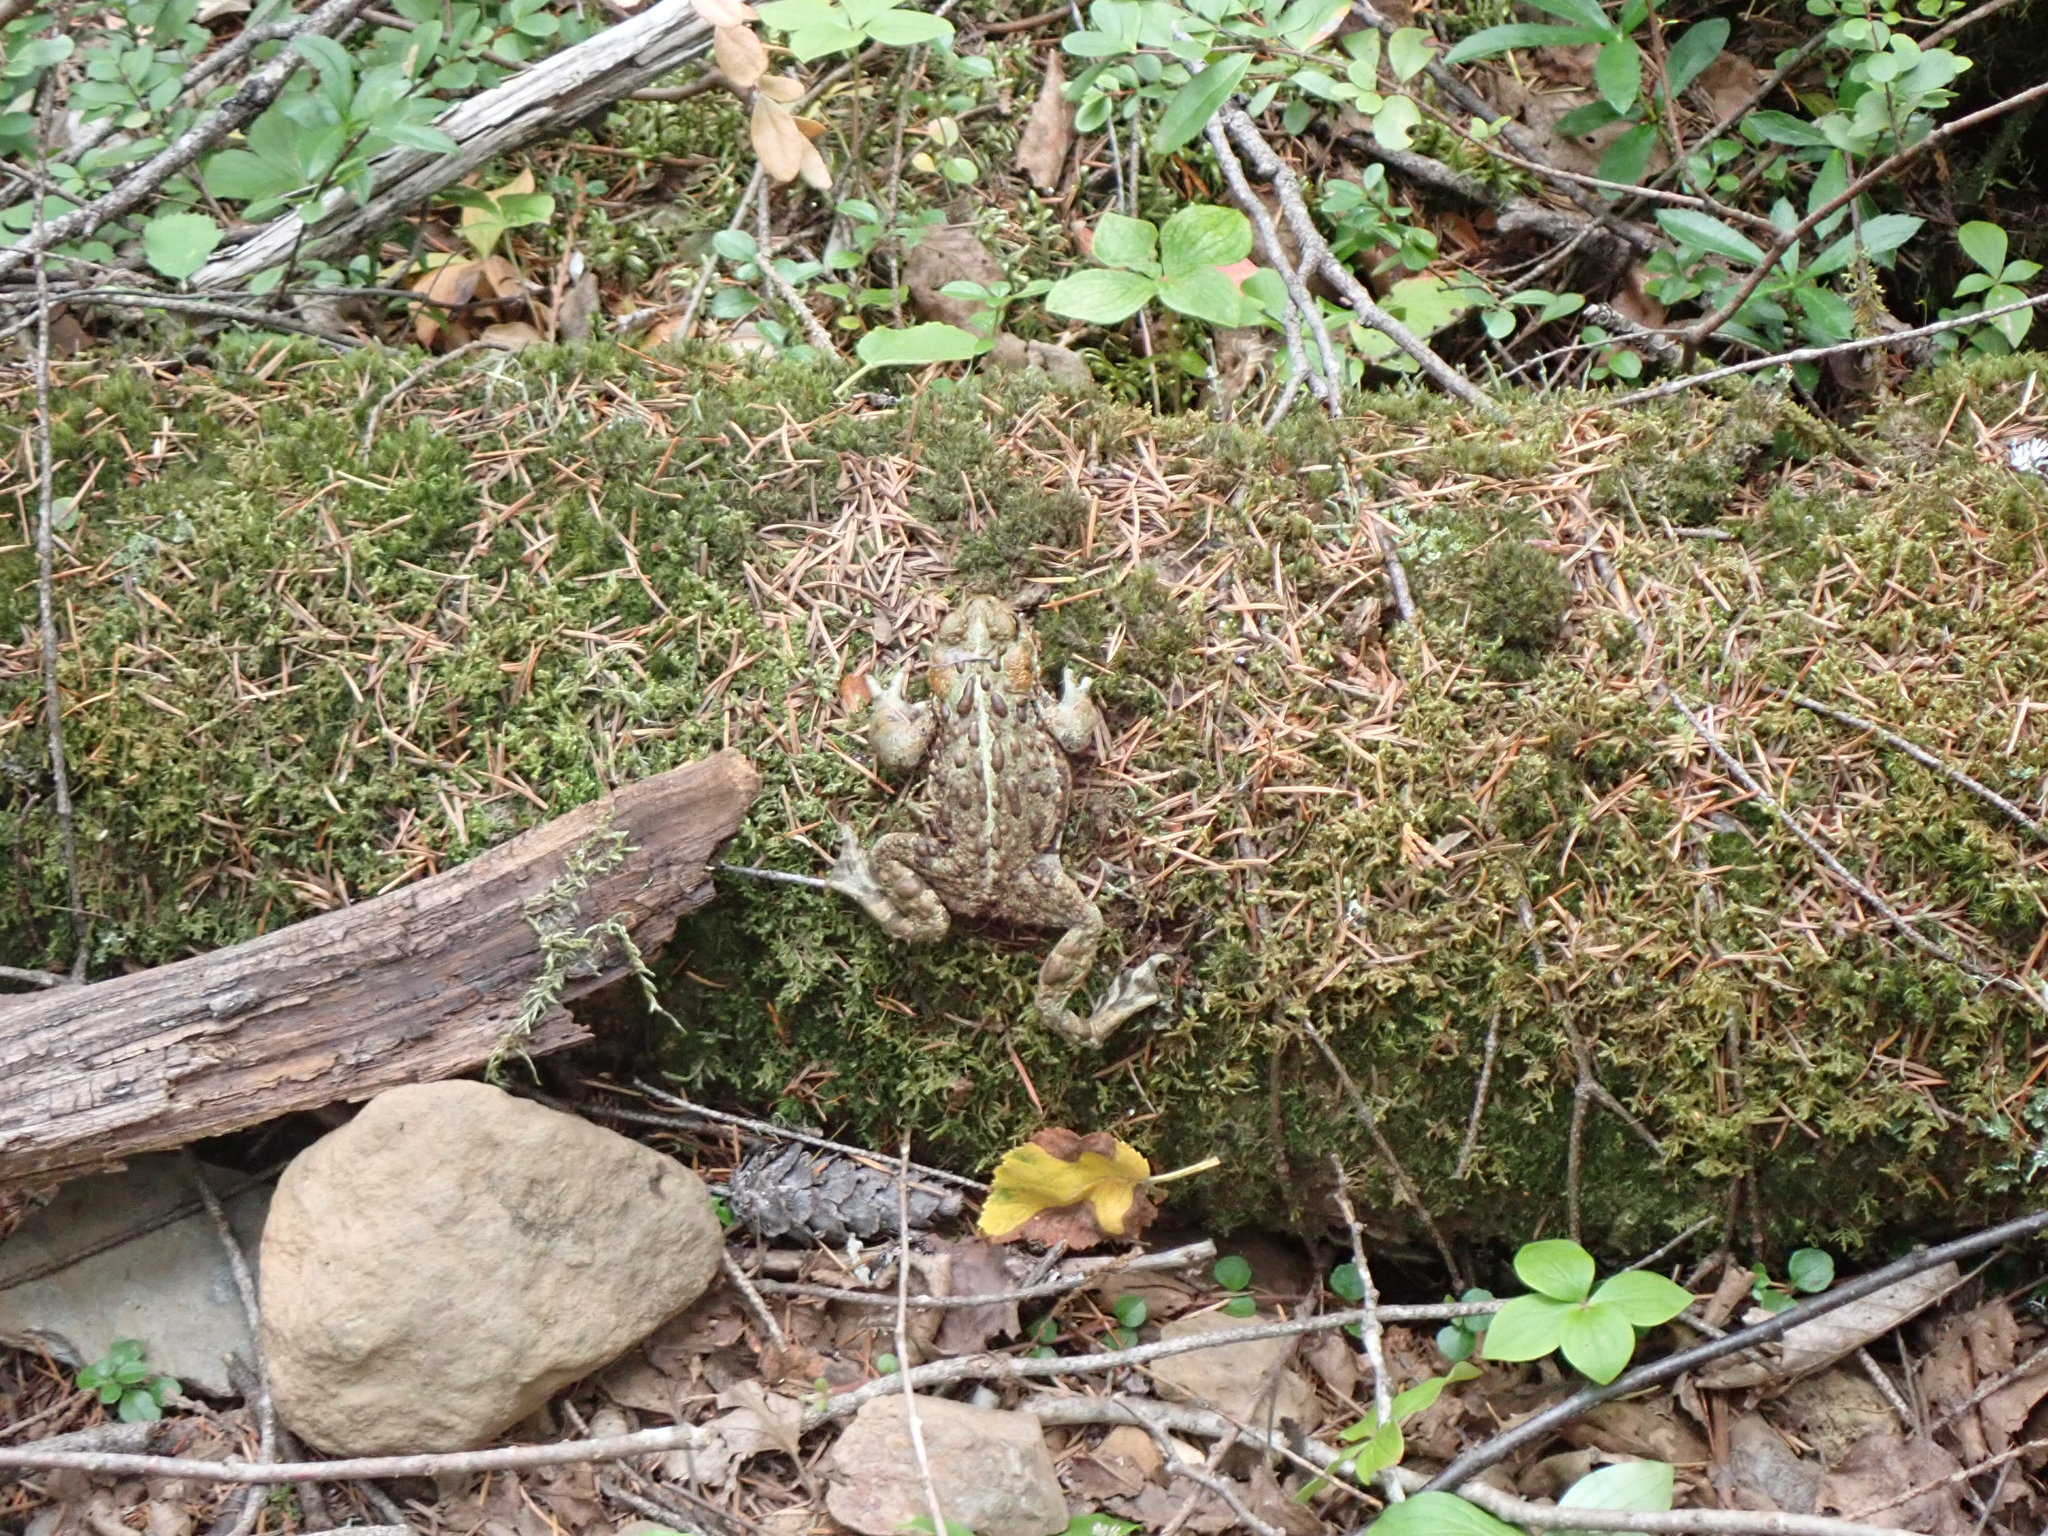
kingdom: Animalia
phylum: Chordata
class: Amphibia
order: Anura
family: Bufonidae
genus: Anaxyrus
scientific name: Anaxyrus boreas
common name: Western toad
